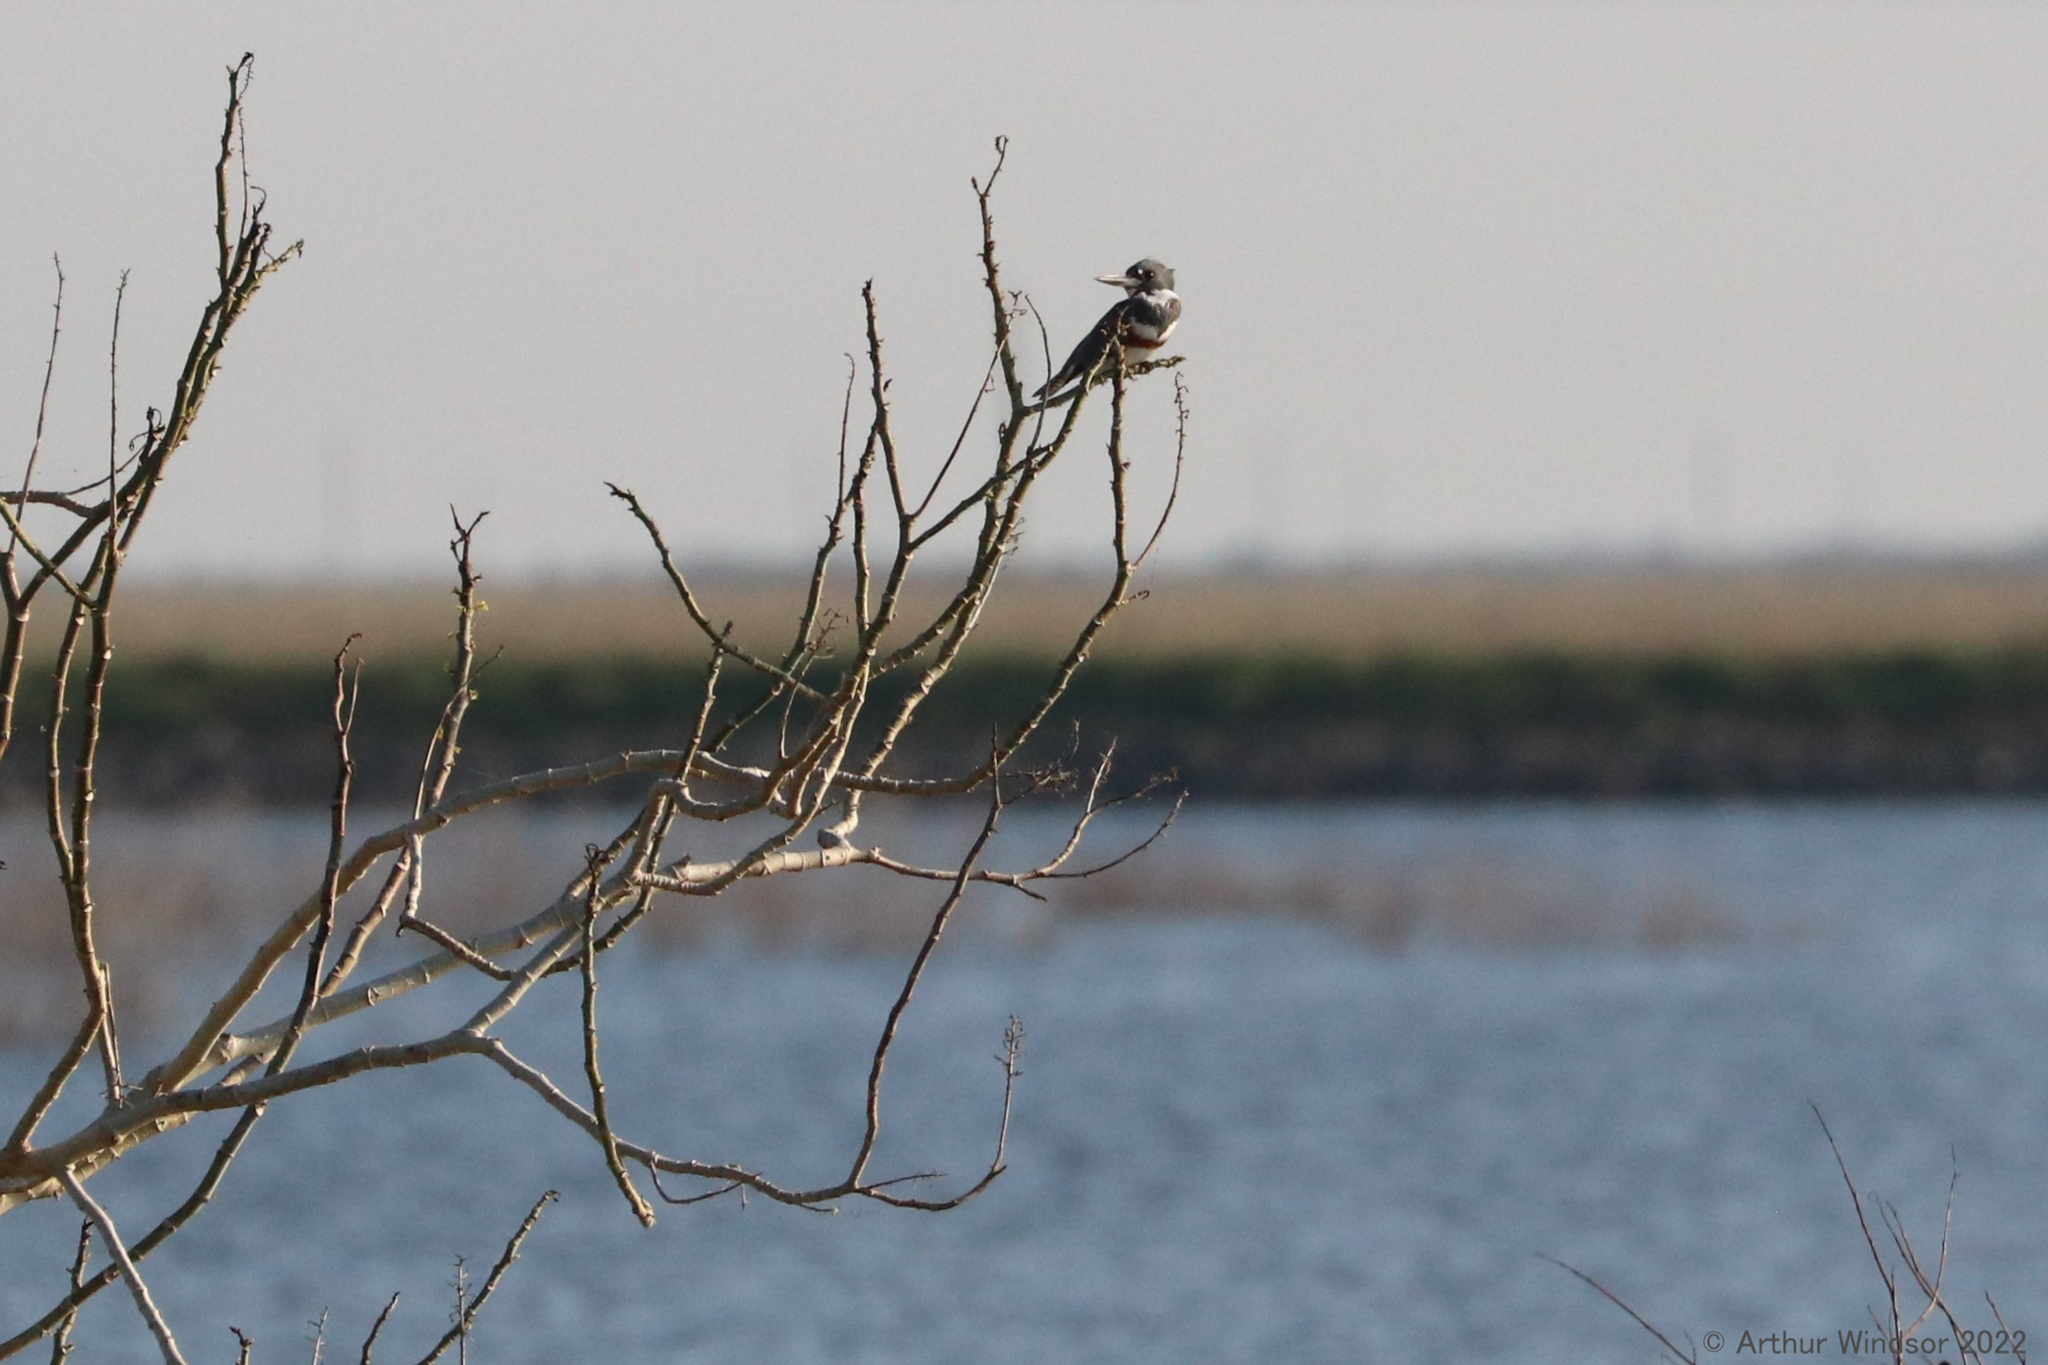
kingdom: Animalia
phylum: Chordata
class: Aves
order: Coraciiformes
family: Alcedinidae
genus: Megaceryle
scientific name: Megaceryle alcyon
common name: Belted kingfisher
